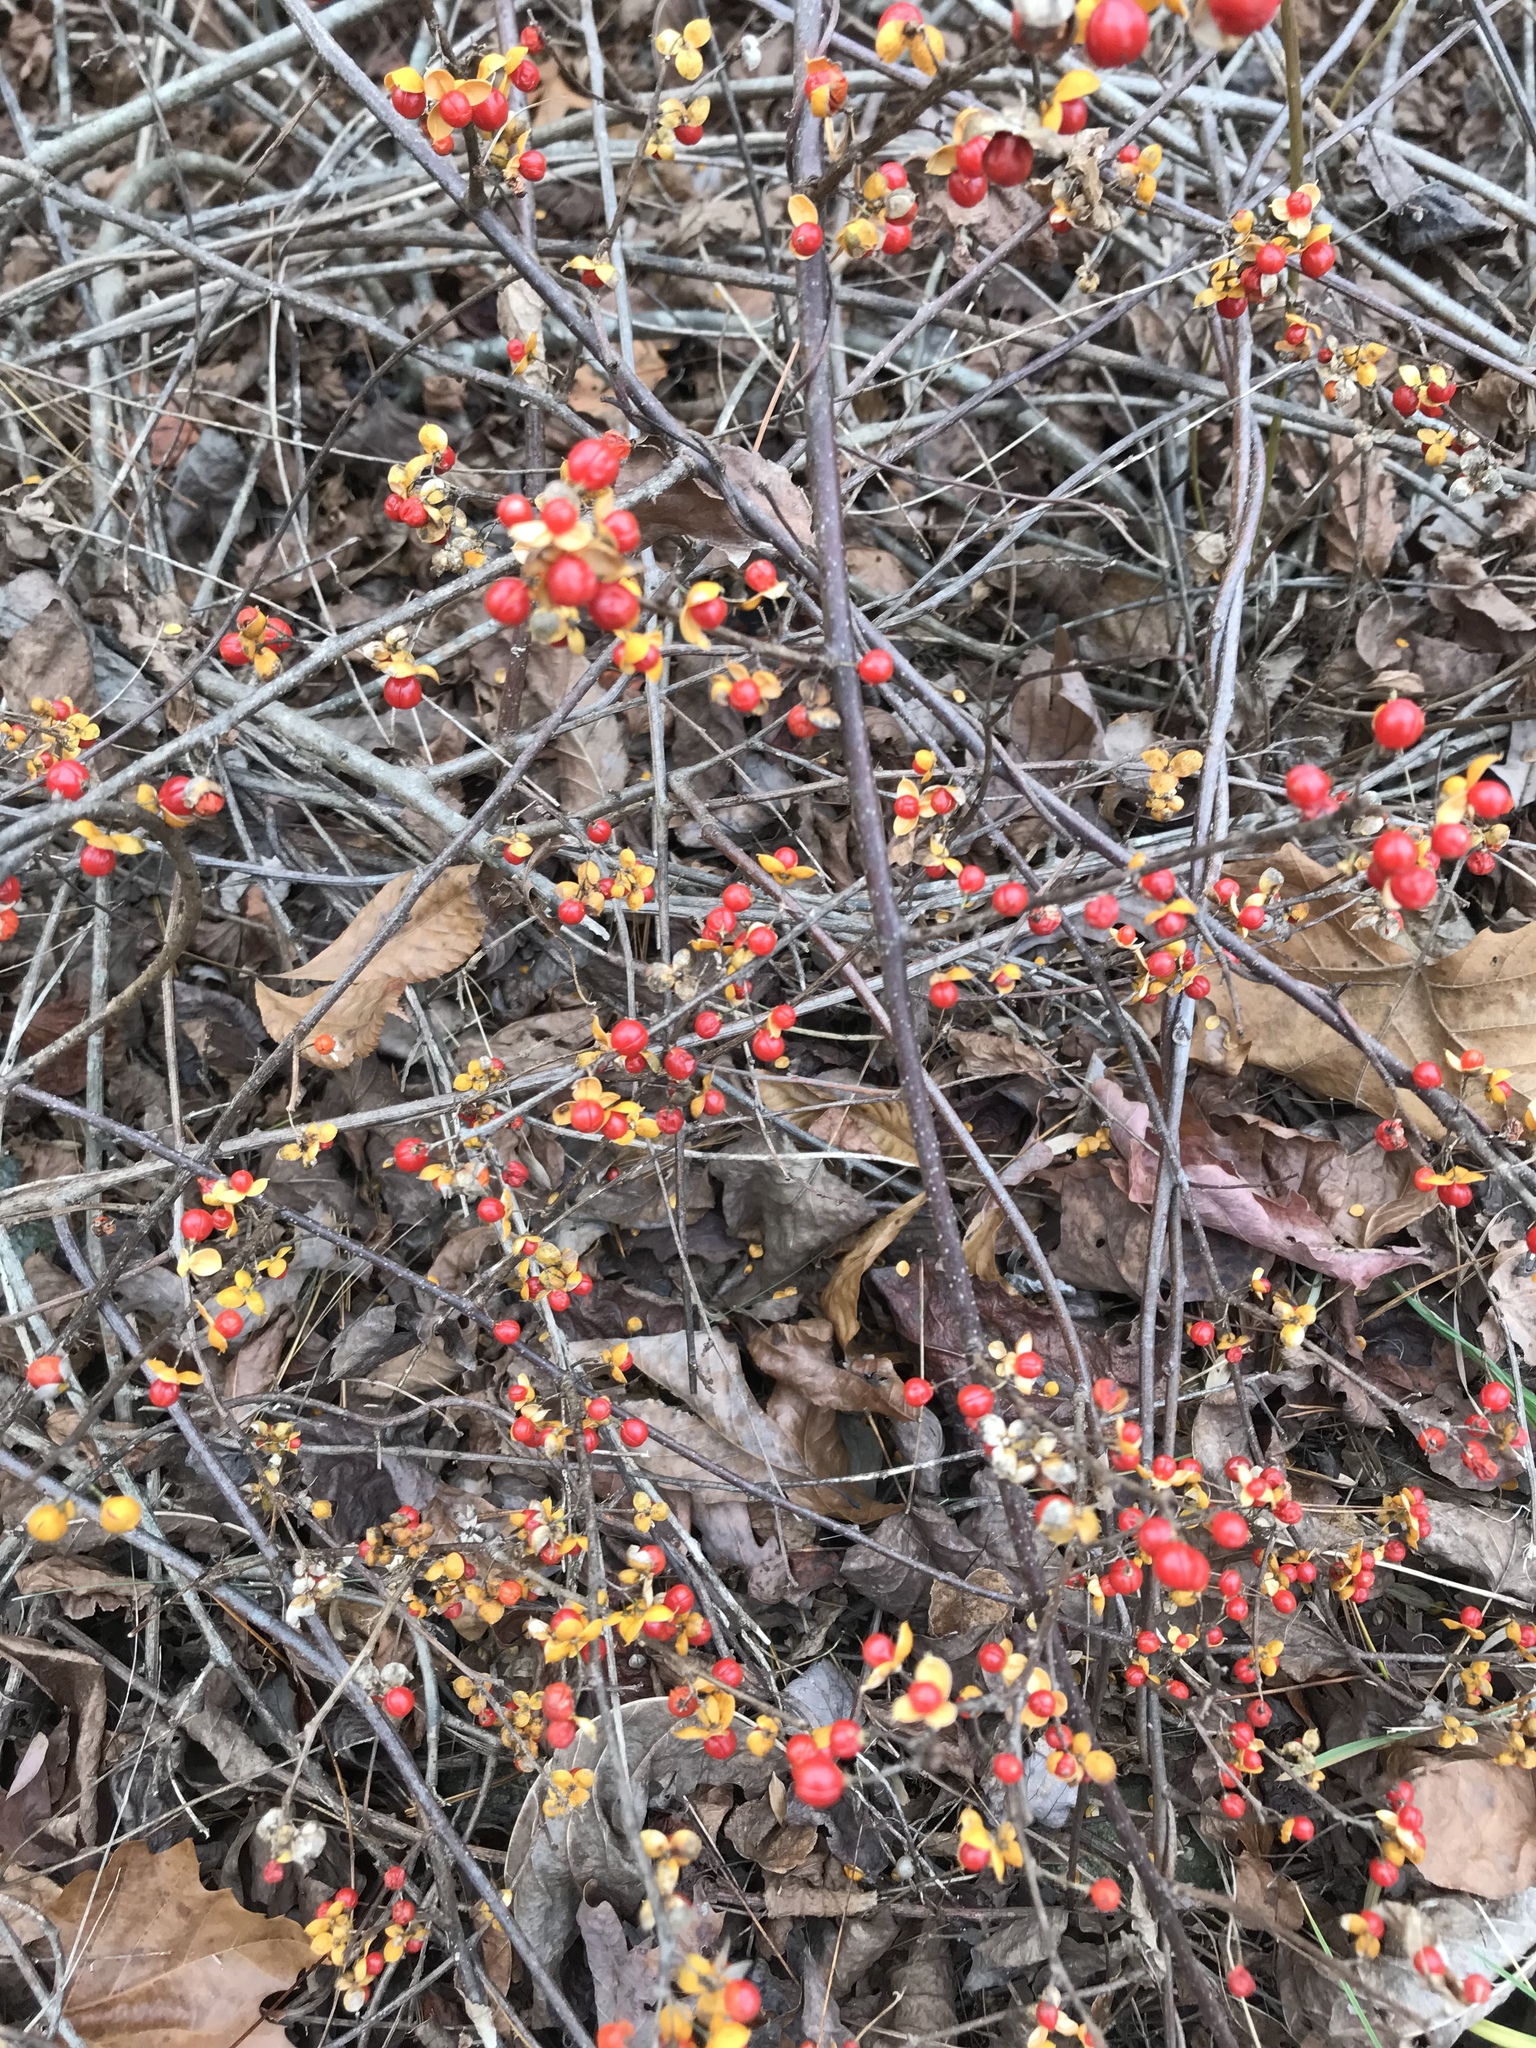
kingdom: Plantae
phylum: Tracheophyta
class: Magnoliopsida
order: Celastrales
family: Celastraceae
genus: Celastrus
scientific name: Celastrus orbiculatus
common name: Oriental bittersweet
